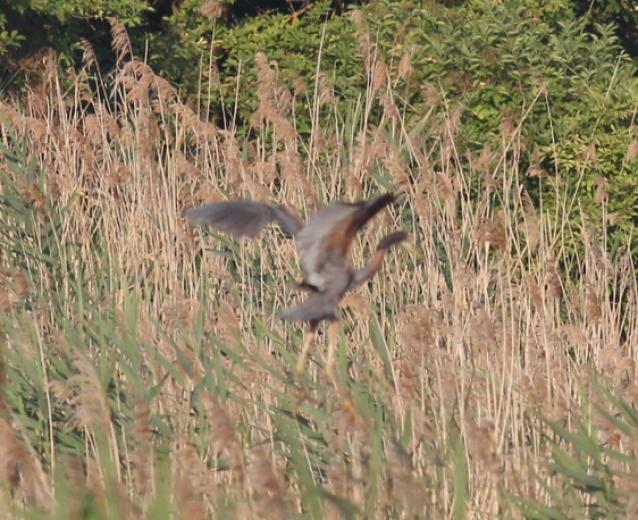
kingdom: Animalia
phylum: Chordata
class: Aves
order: Pelecaniformes
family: Ardeidae
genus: Ardea
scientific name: Ardea purpurea
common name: Purple heron
